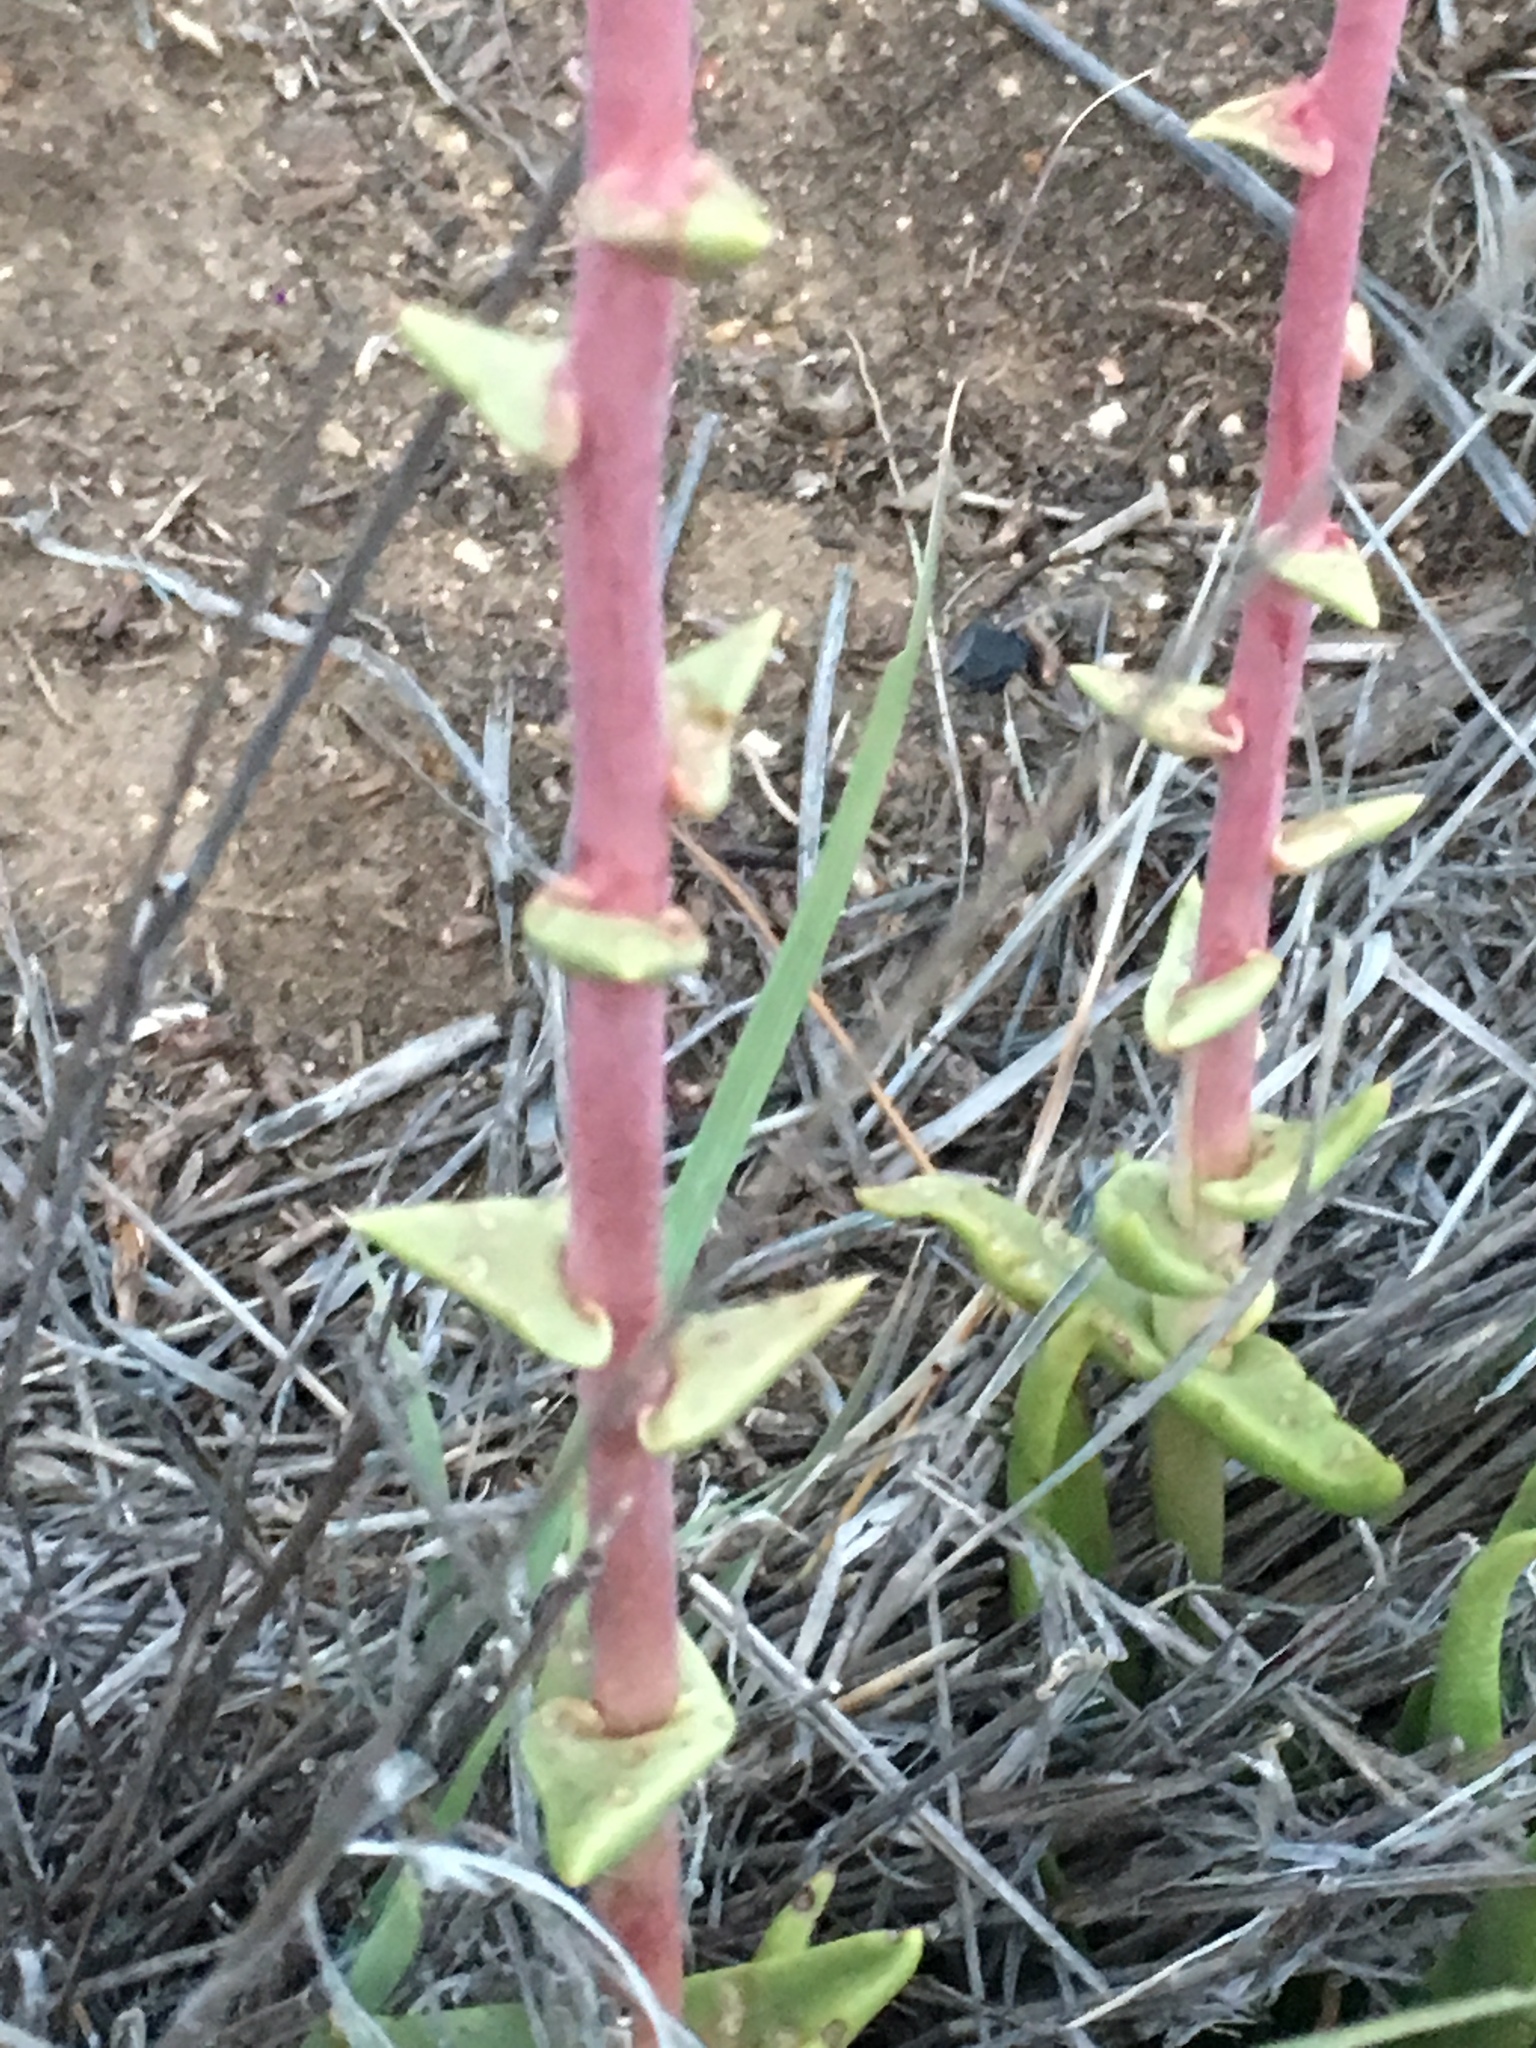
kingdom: Plantae
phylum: Tracheophyta
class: Magnoliopsida
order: Saxifragales
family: Crassulaceae
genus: Dudleya
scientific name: Dudleya saxosa
